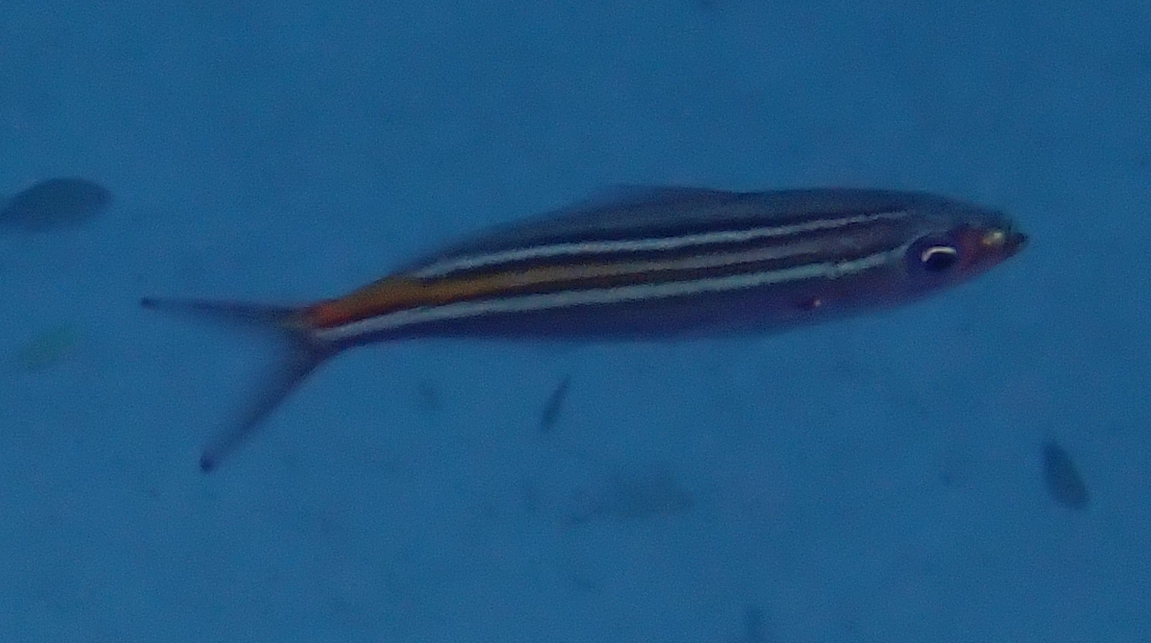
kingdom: Animalia
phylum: Chordata
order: Perciformes
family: Caesionidae
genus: Caesio
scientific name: Caesio striata
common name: Striated fusilier
